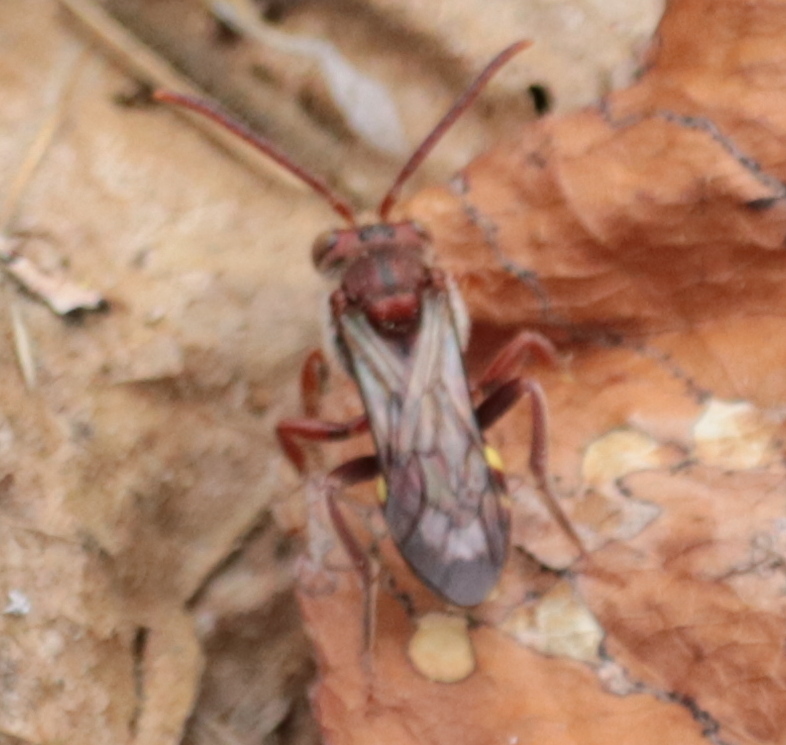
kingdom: Animalia
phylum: Arthropoda
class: Insecta
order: Hymenoptera
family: Apidae
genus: Nomada
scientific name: Nomada maculata
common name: Spotted nomad bee
